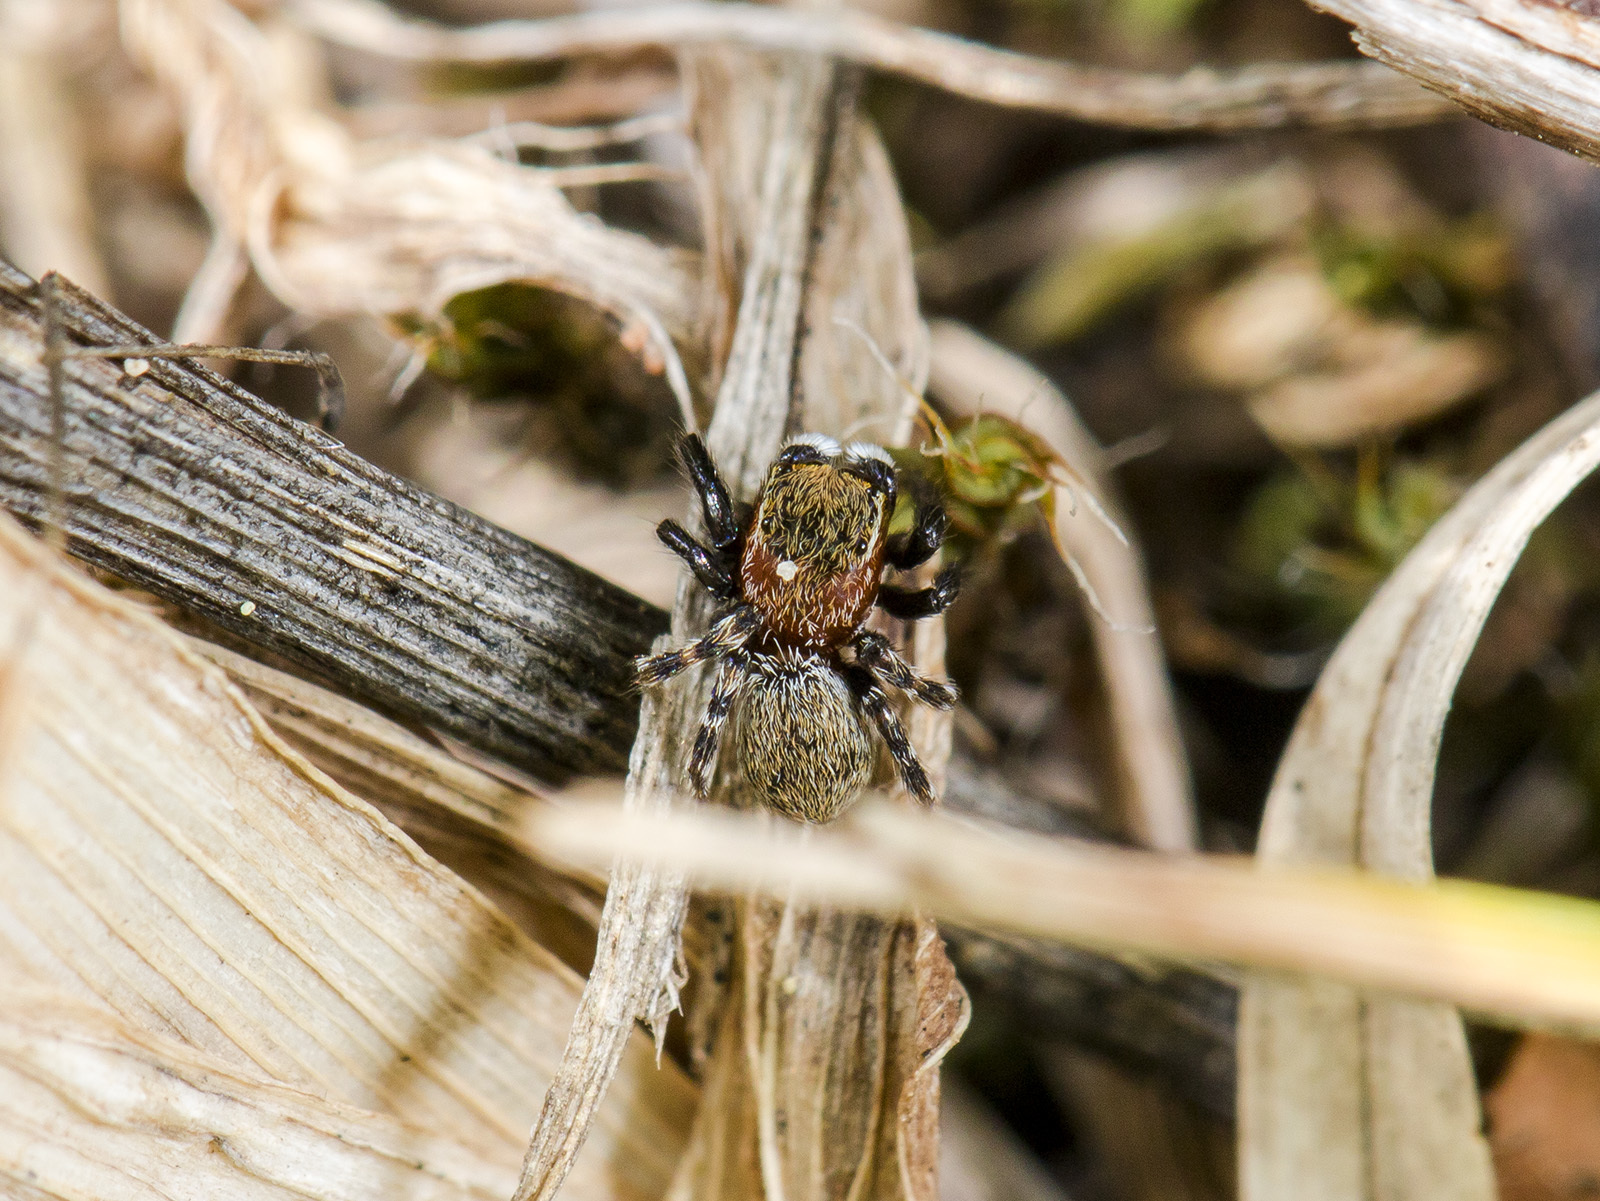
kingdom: Animalia
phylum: Arthropoda
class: Arachnida
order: Araneae
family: Salticidae
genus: Talavera
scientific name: Talavera petrensis
